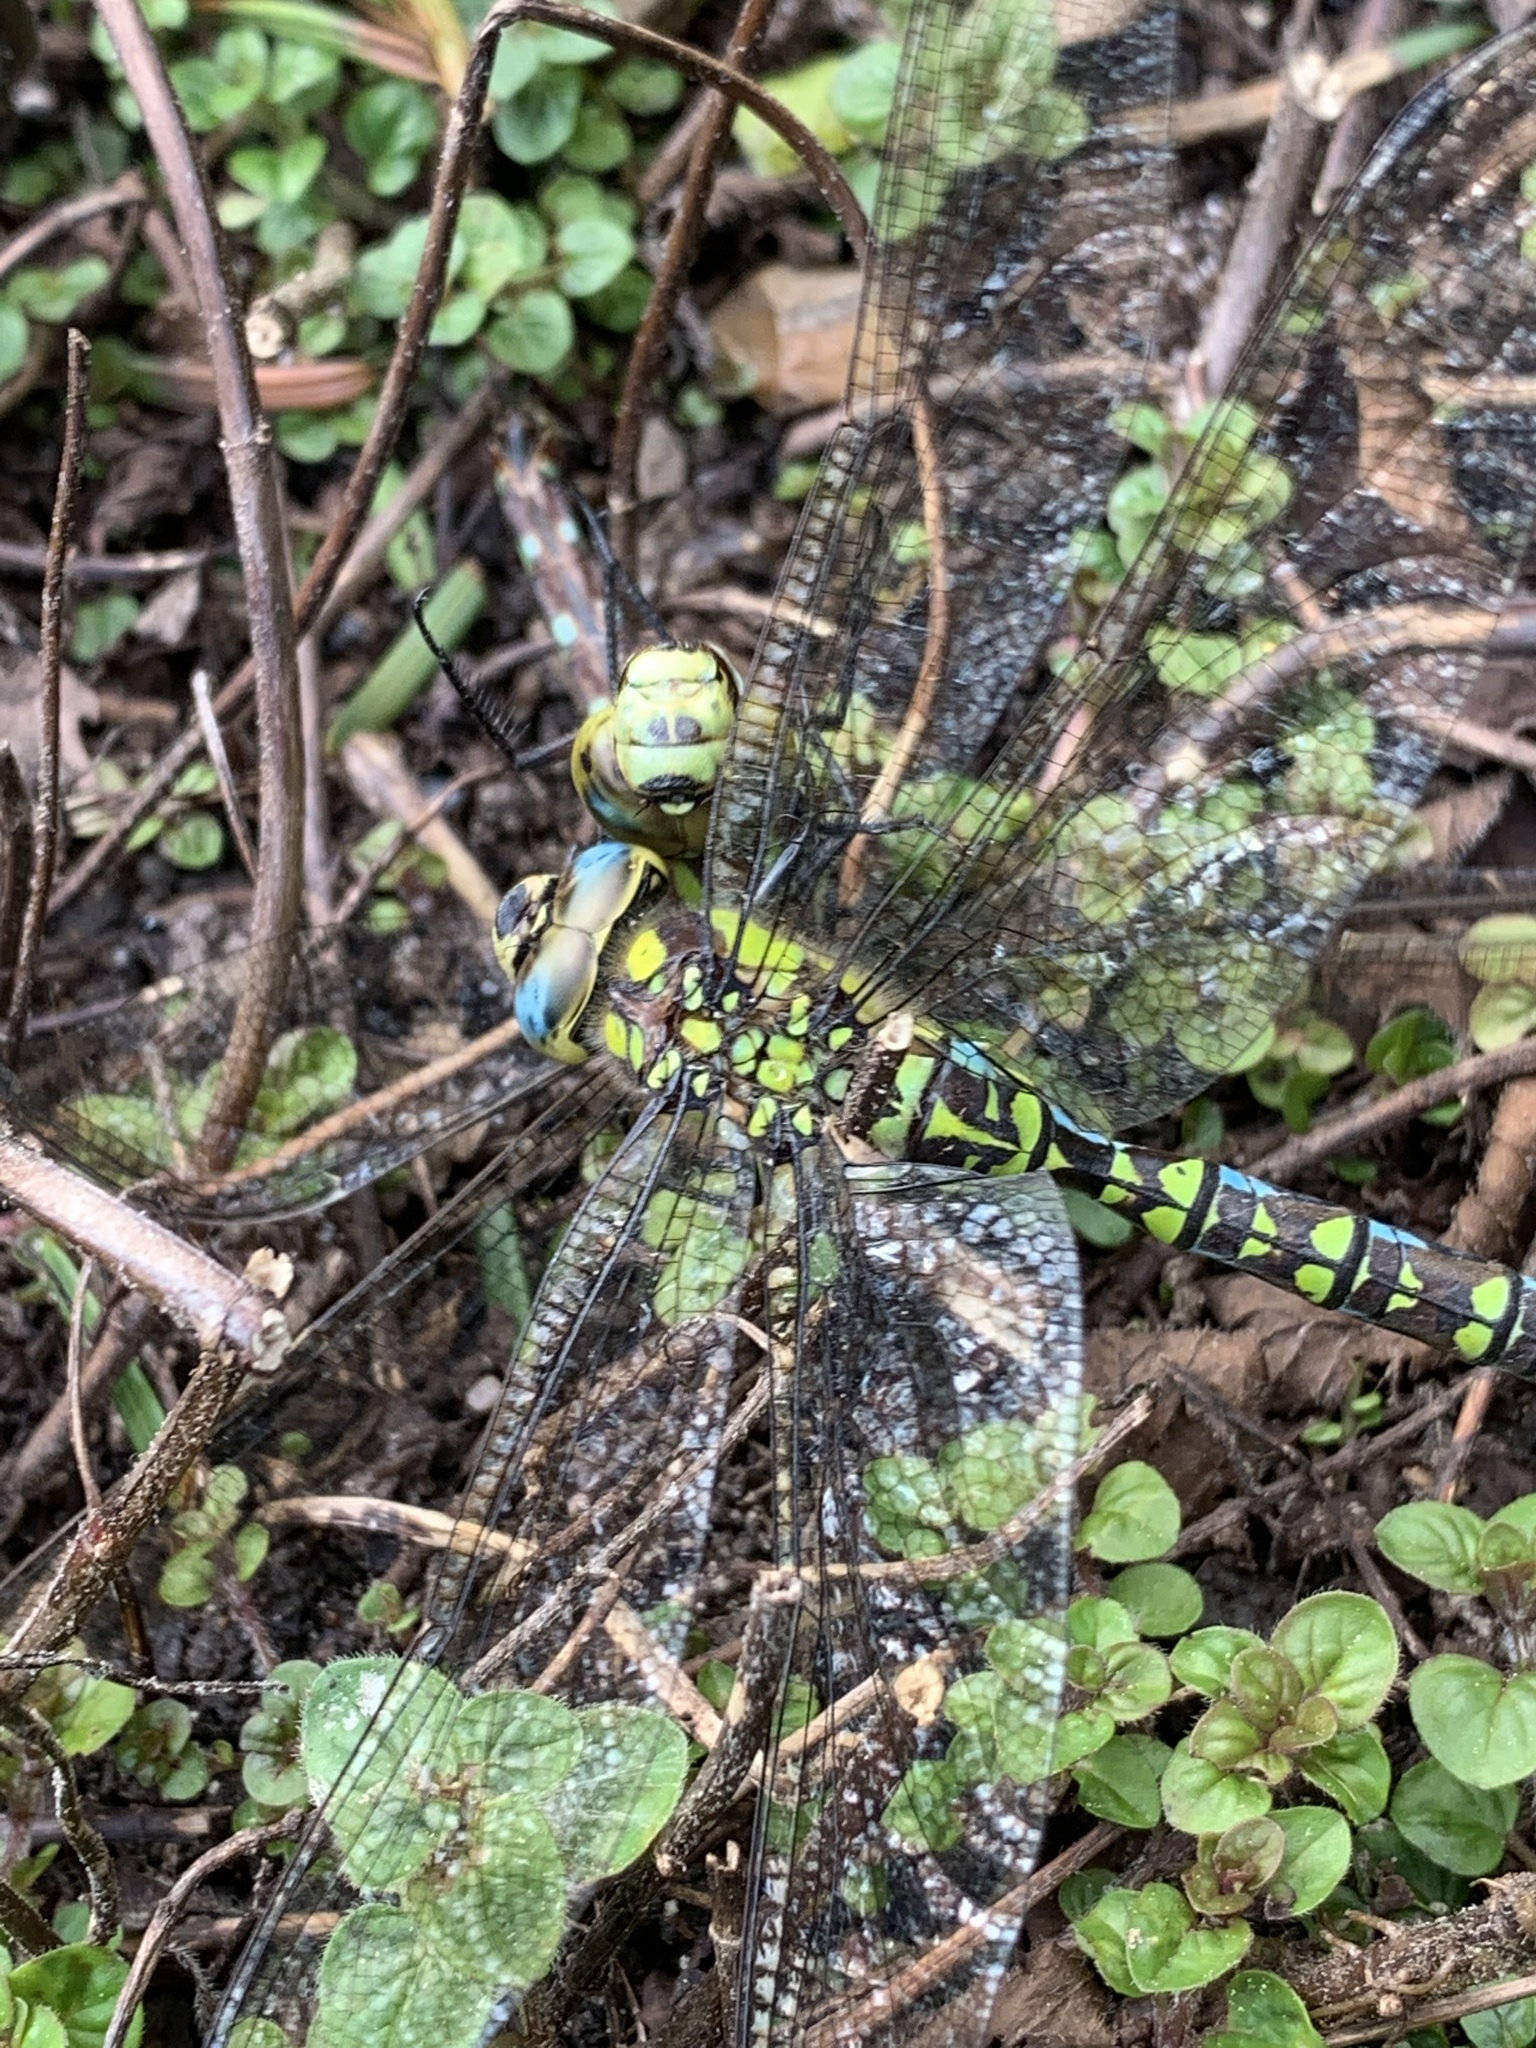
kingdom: Animalia
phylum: Arthropoda
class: Insecta
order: Odonata
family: Aeshnidae
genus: Aeshna
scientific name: Aeshna cyanea
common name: Southern hawker
